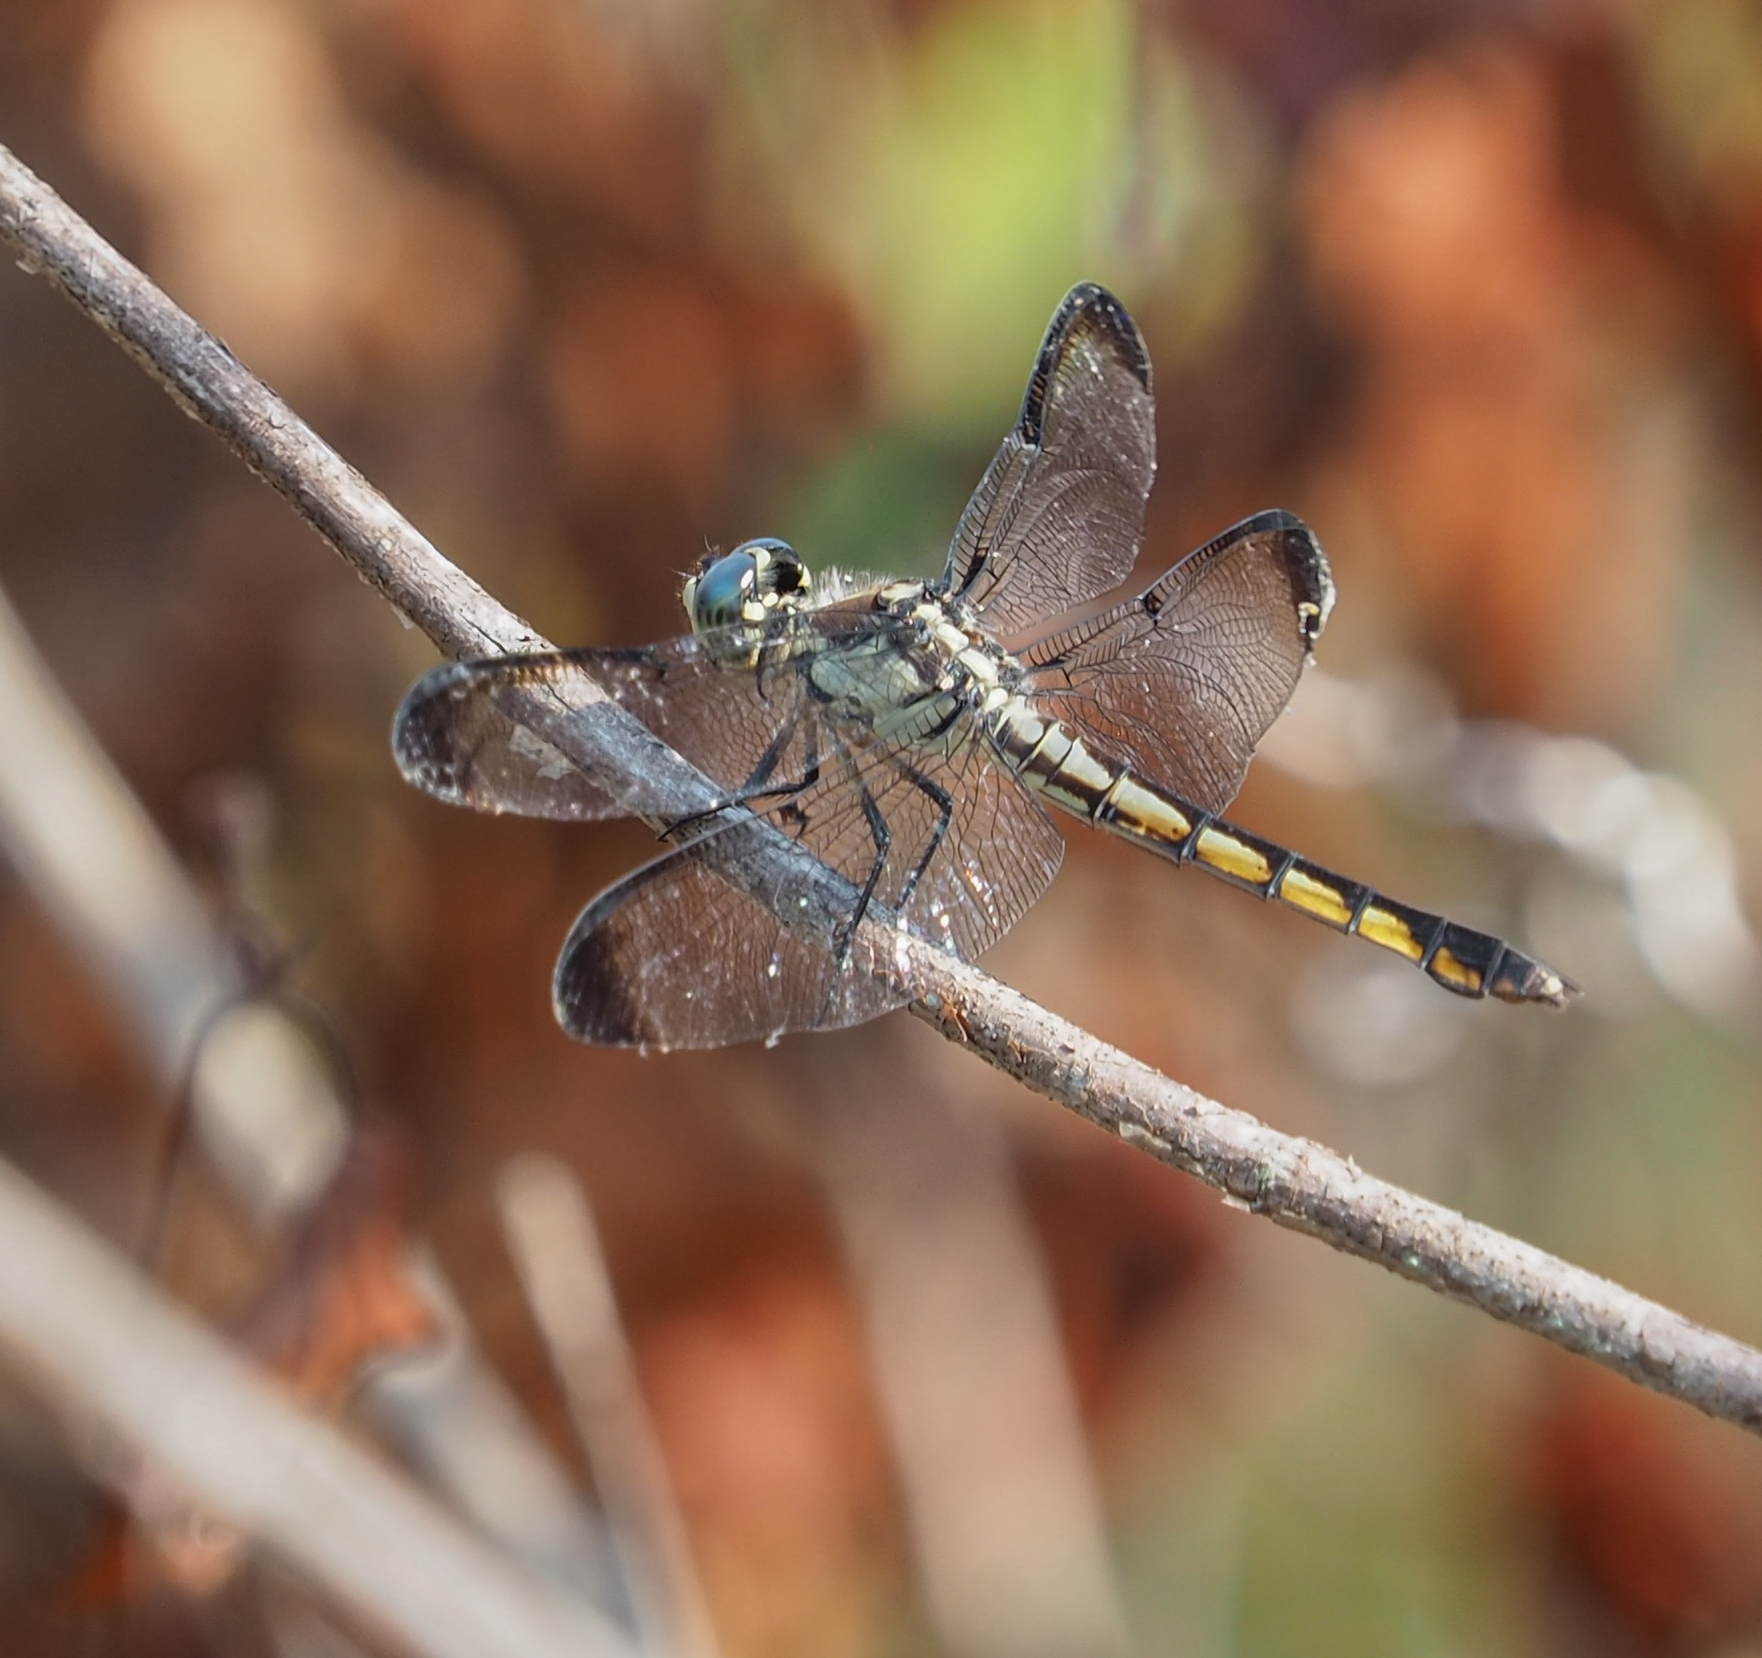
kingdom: Animalia
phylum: Arthropoda
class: Insecta
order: Odonata
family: Libellulidae
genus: Libellula
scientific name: Libellula vibrans
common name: Great blue skimmer
